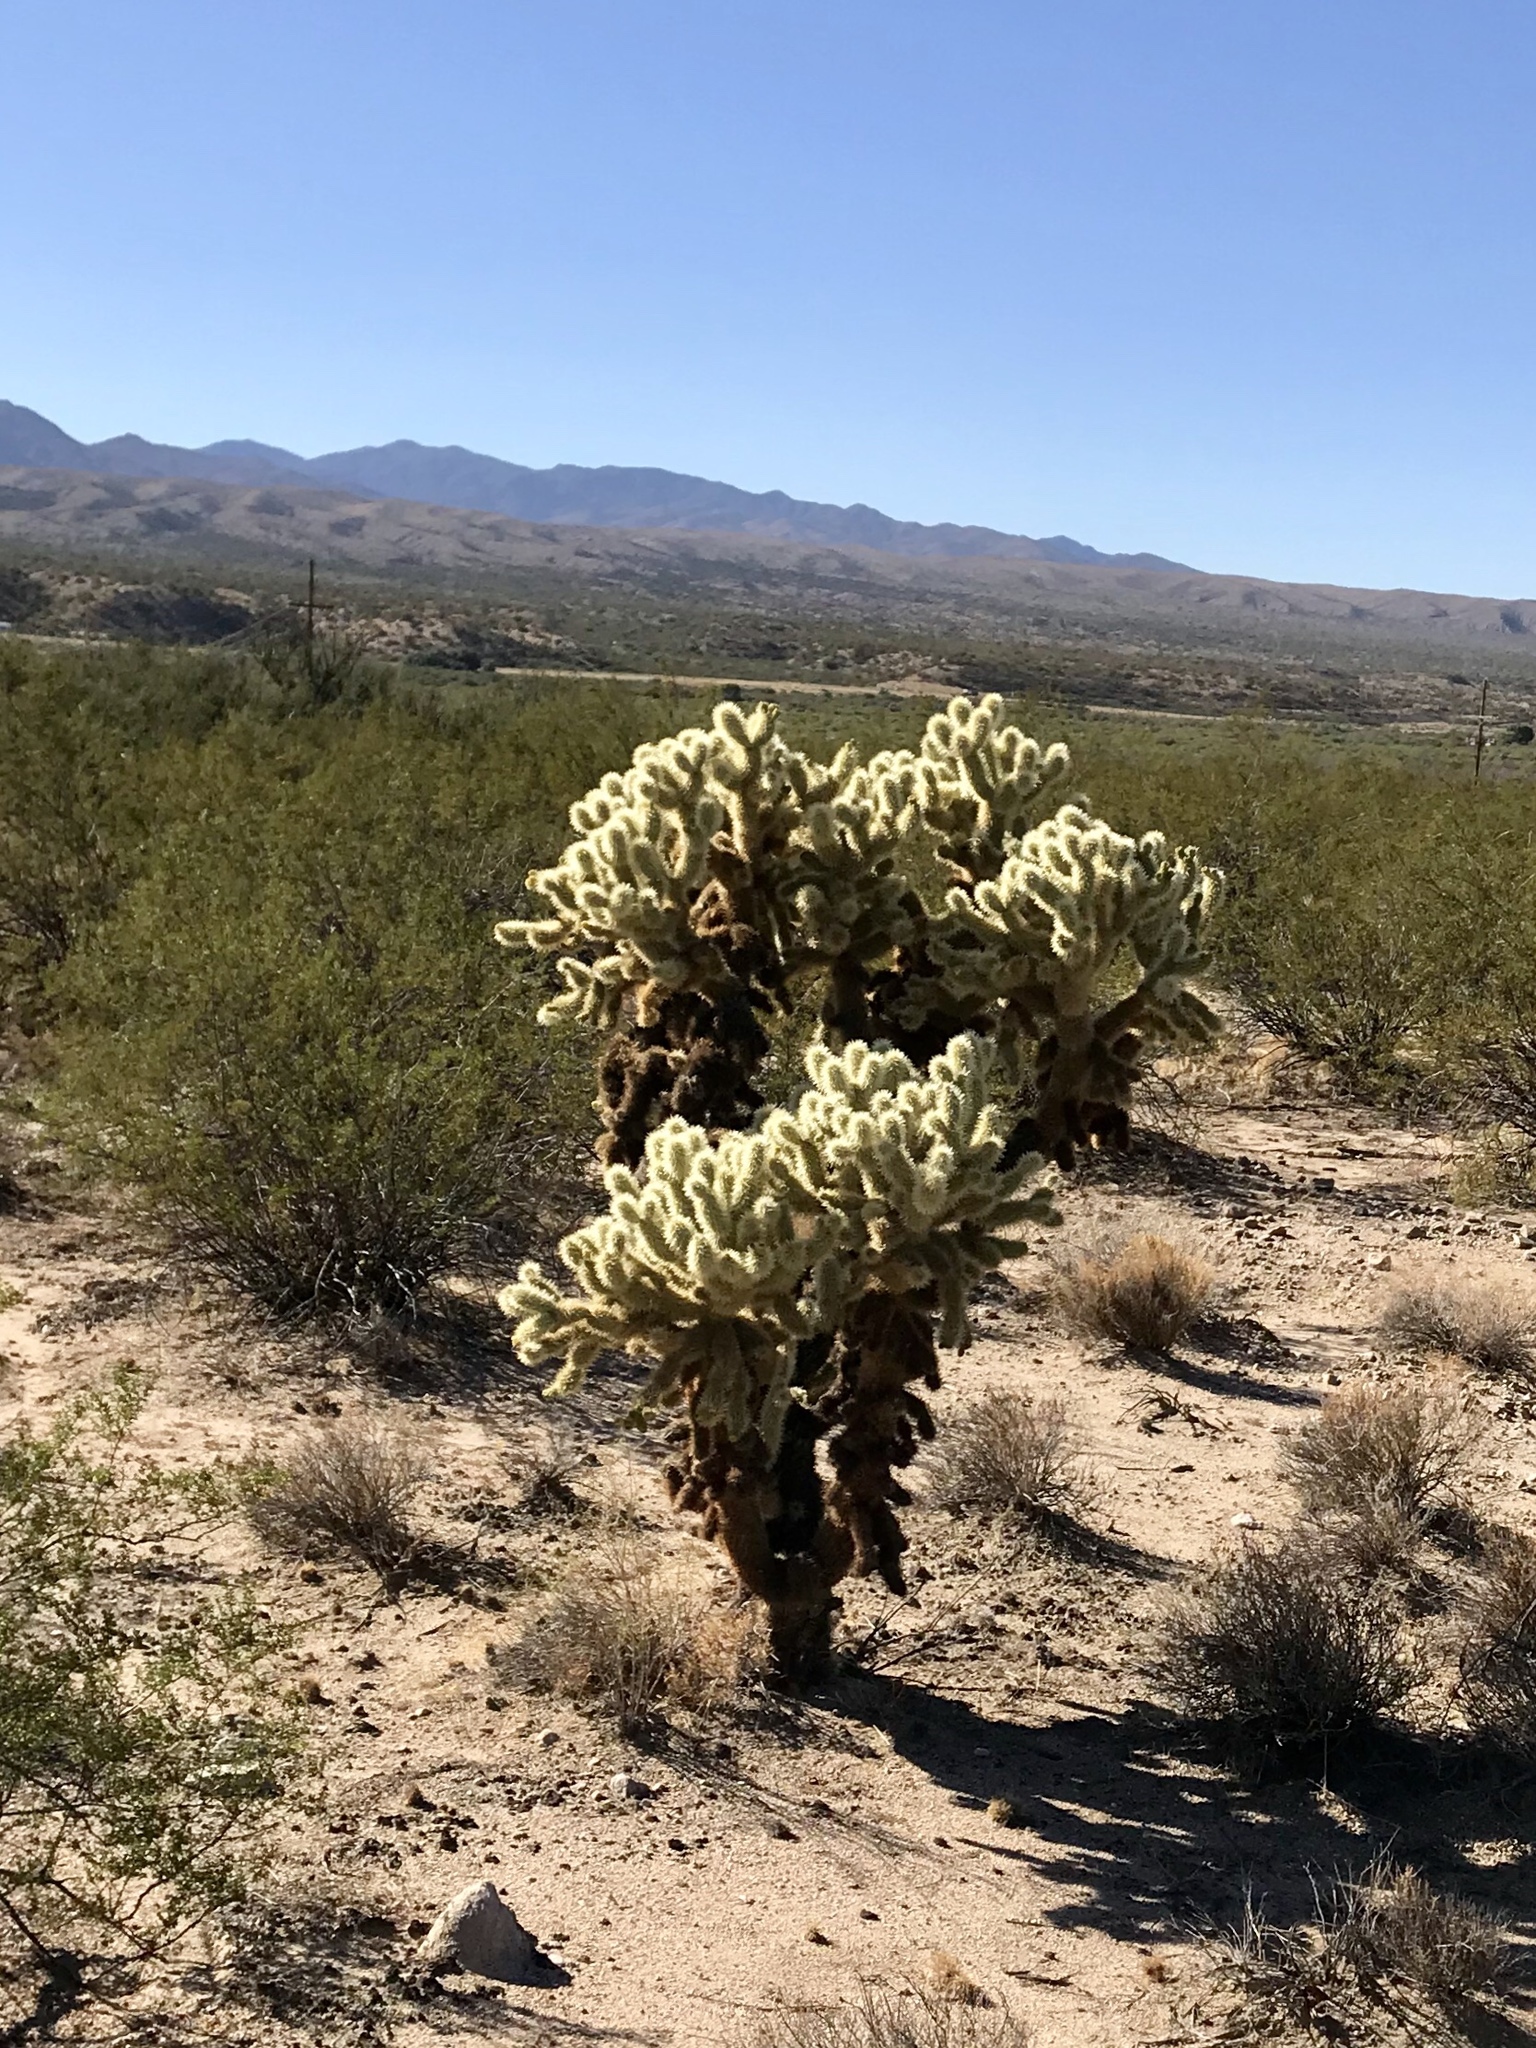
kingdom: Plantae
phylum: Tracheophyta
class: Magnoliopsida
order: Caryophyllales
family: Cactaceae
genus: Cylindropuntia
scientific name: Cylindropuntia fosbergii
